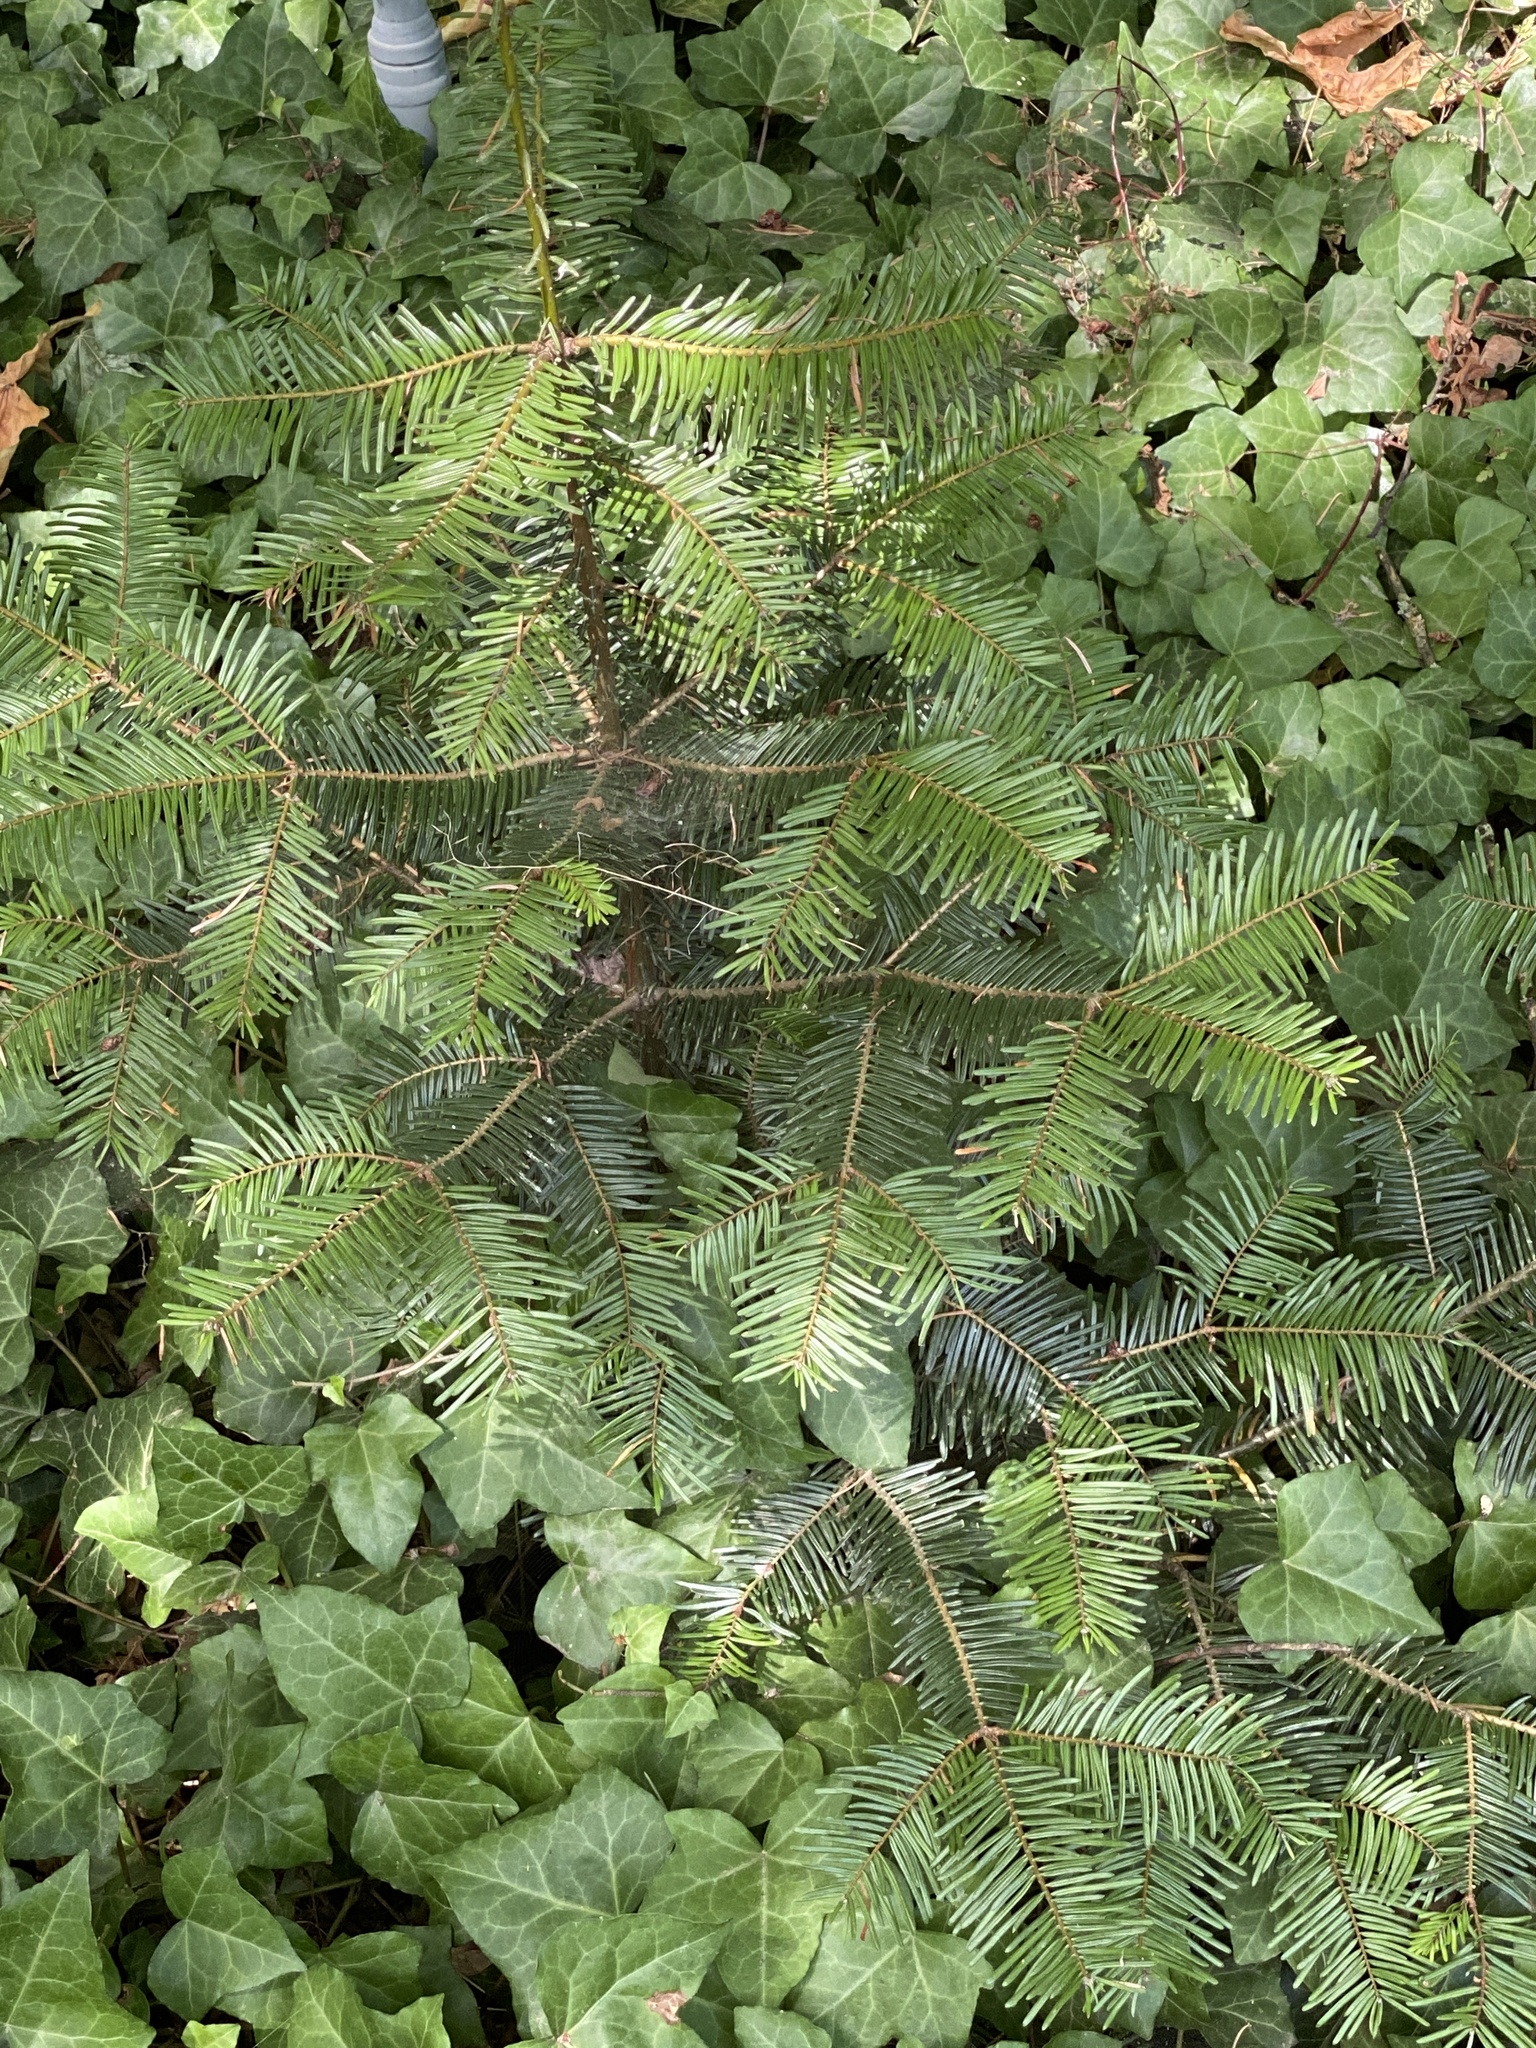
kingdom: Plantae
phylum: Tracheophyta
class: Pinopsida
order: Pinales
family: Pinaceae
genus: Abies
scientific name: Abies grandis
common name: Giant fir
